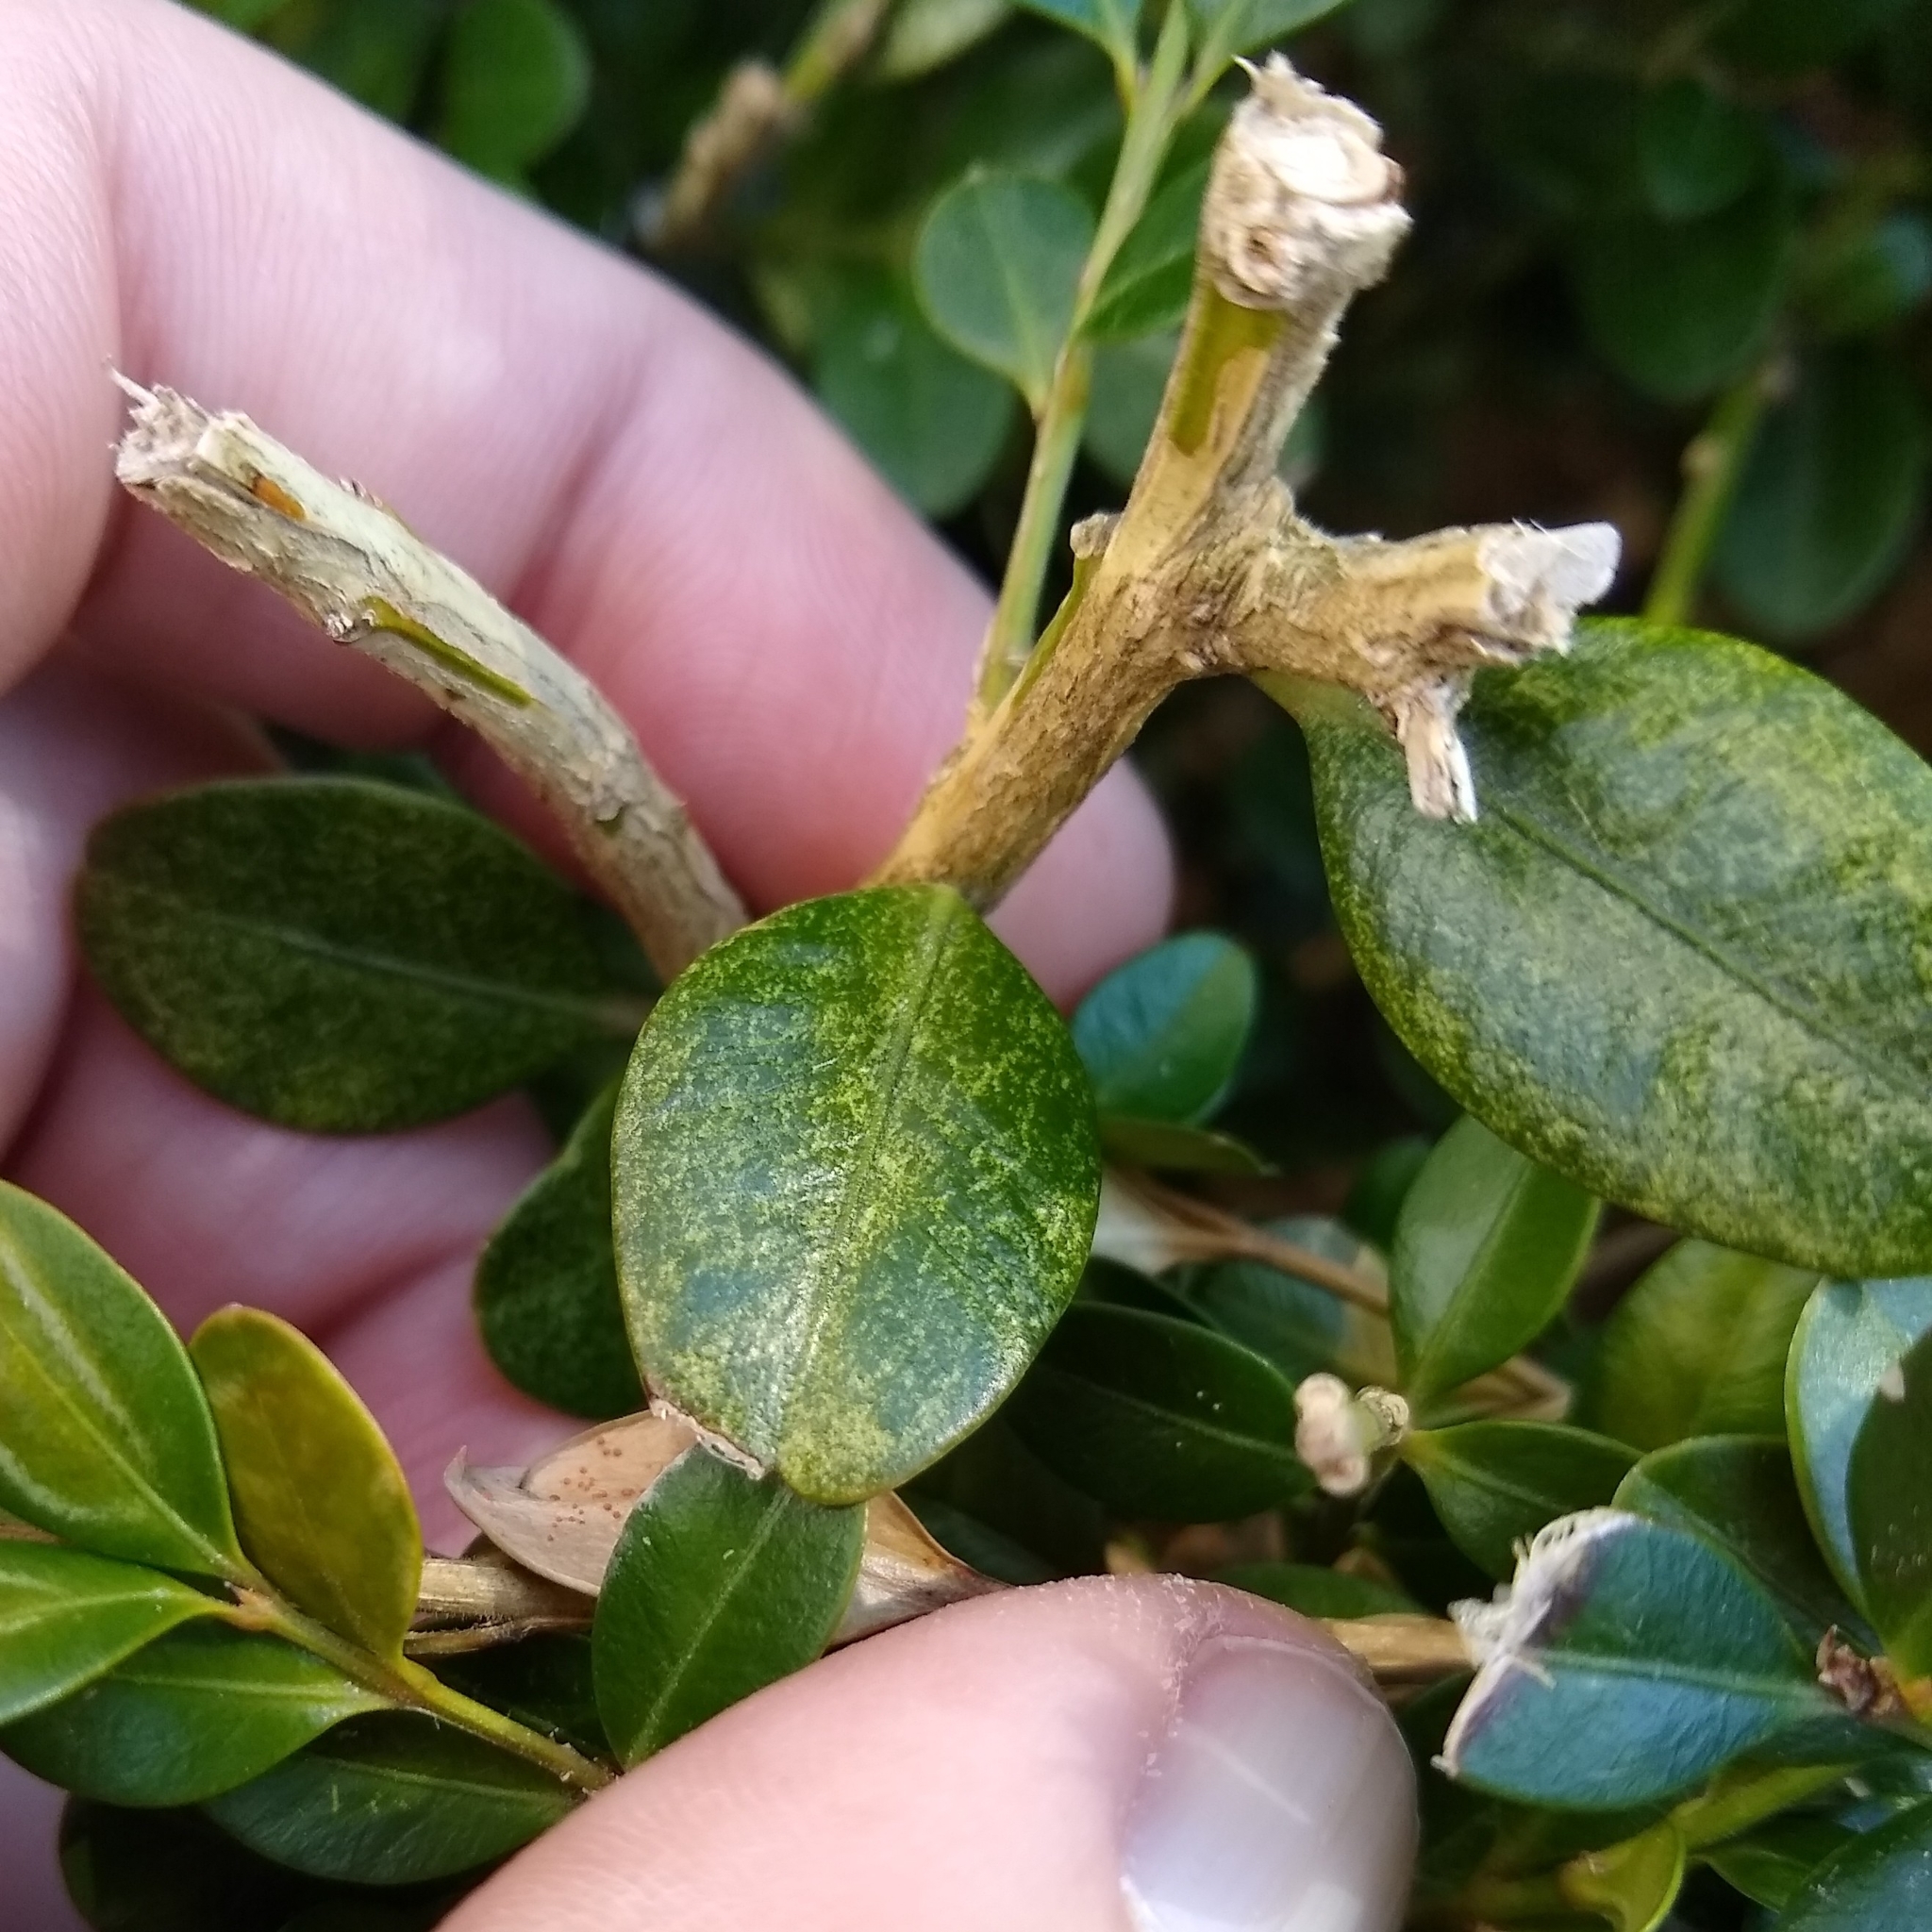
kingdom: Animalia
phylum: Arthropoda
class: Arachnida
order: Trombidiformes
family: Tetranychidae
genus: Eurytetranychus
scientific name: Eurytetranychus buxi
